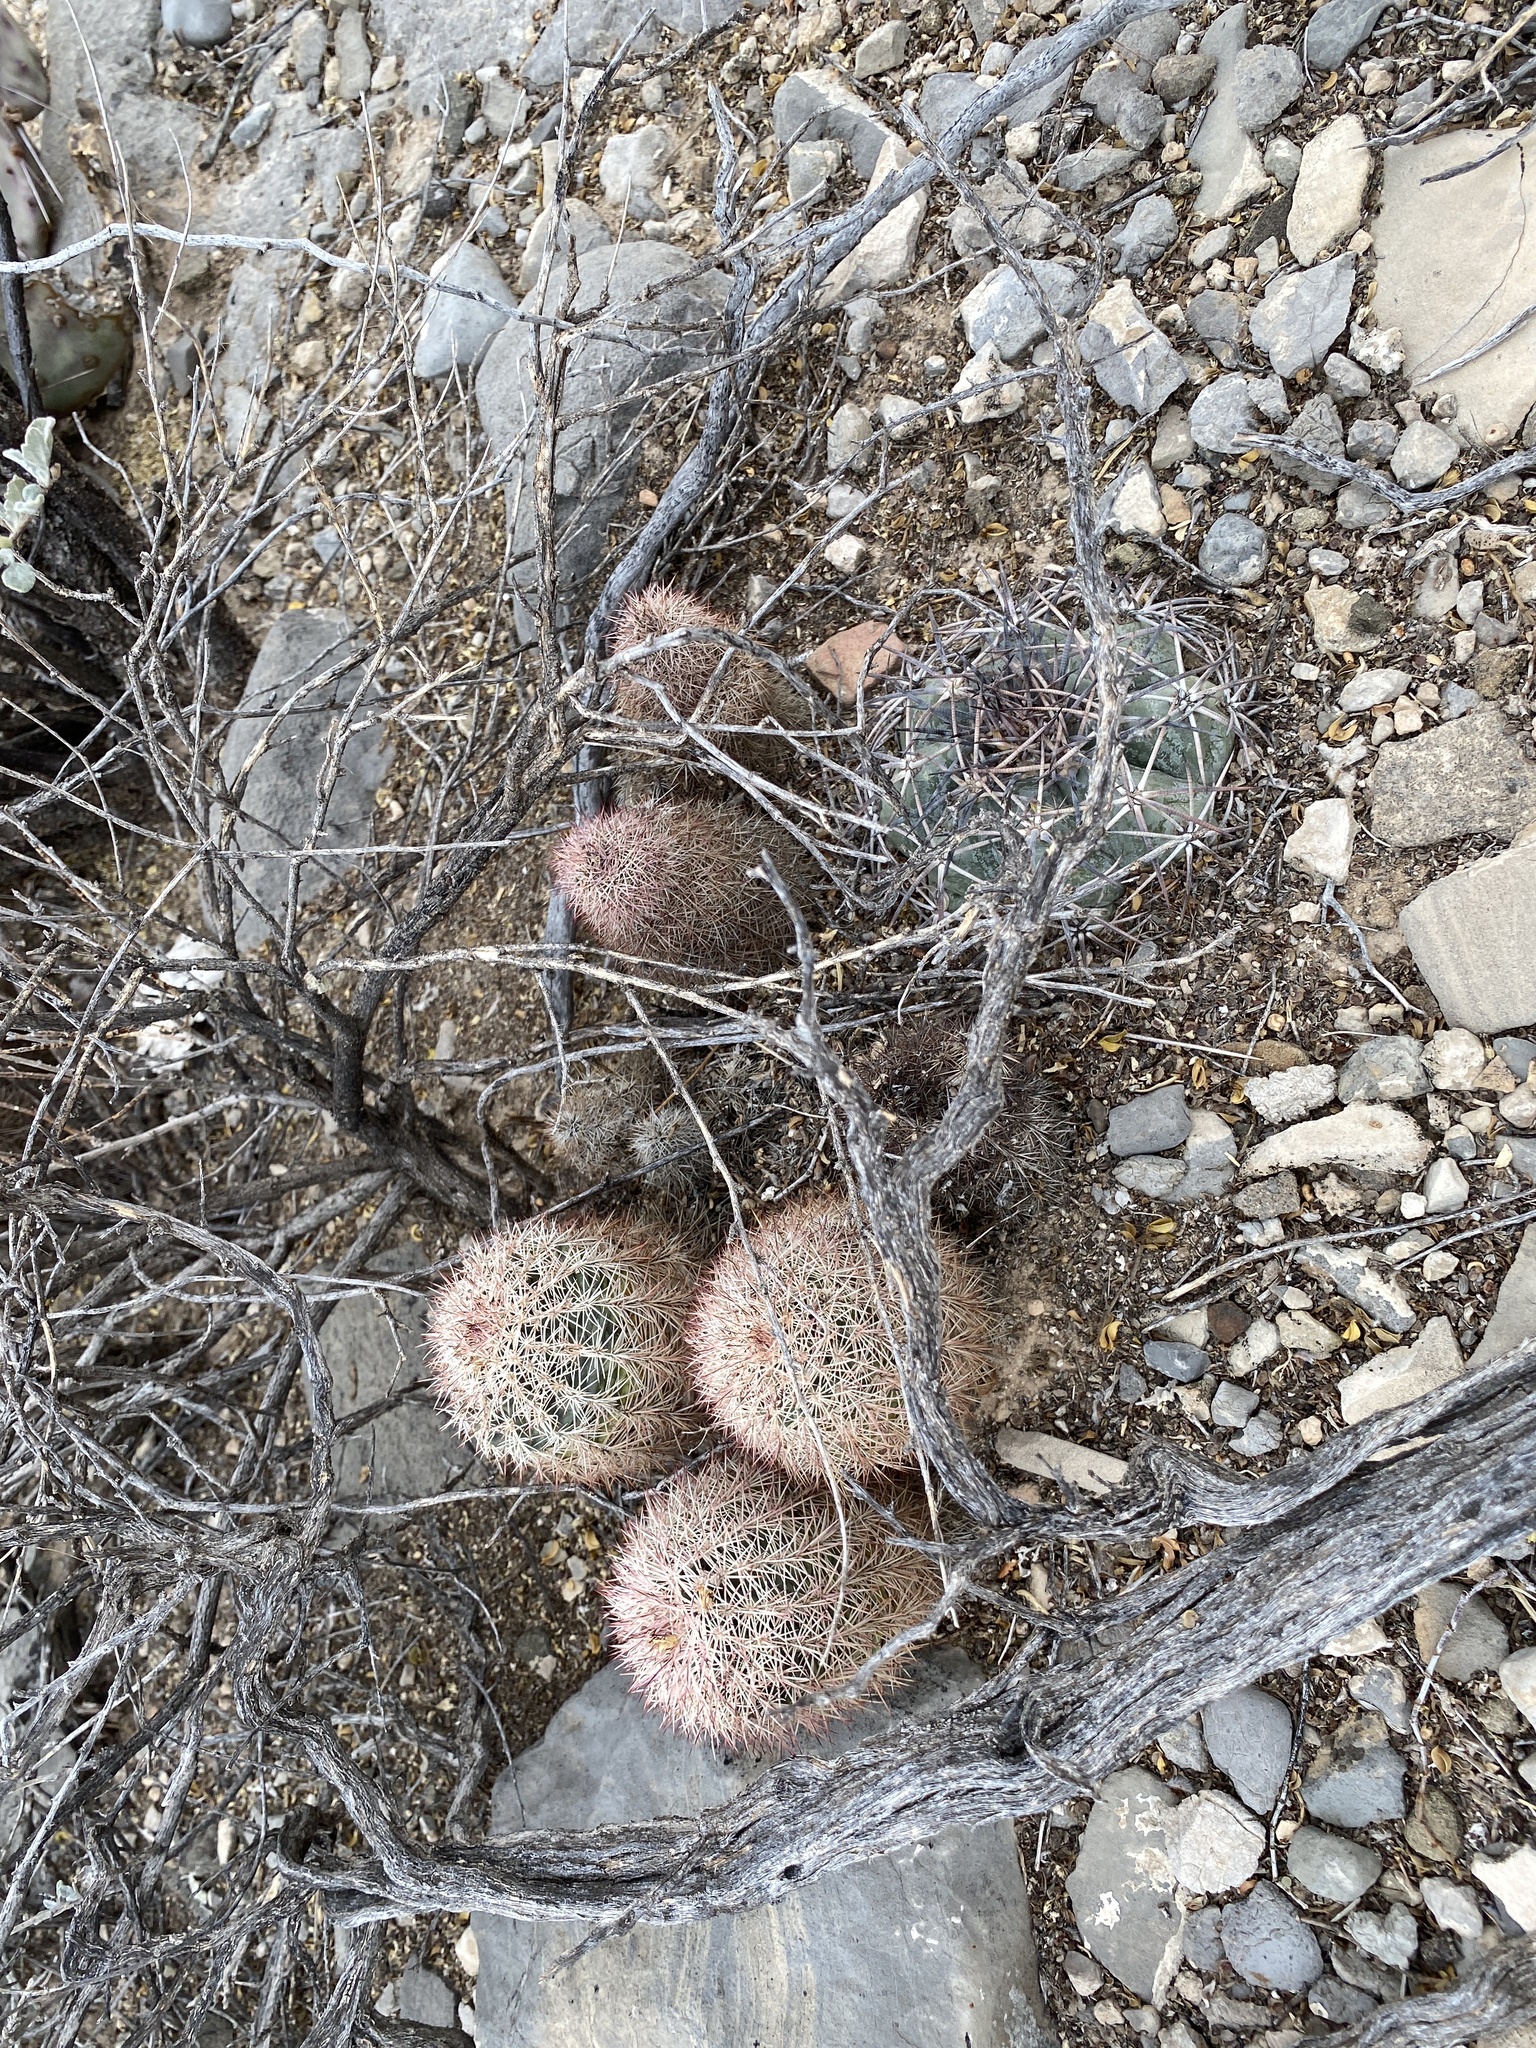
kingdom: Plantae
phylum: Tracheophyta
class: Magnoliopsida
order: Caryophyllales
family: Cactaceae
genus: Echinocereus
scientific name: Echinocereus dasyacanthus
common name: Spiny hedgehog cactus
